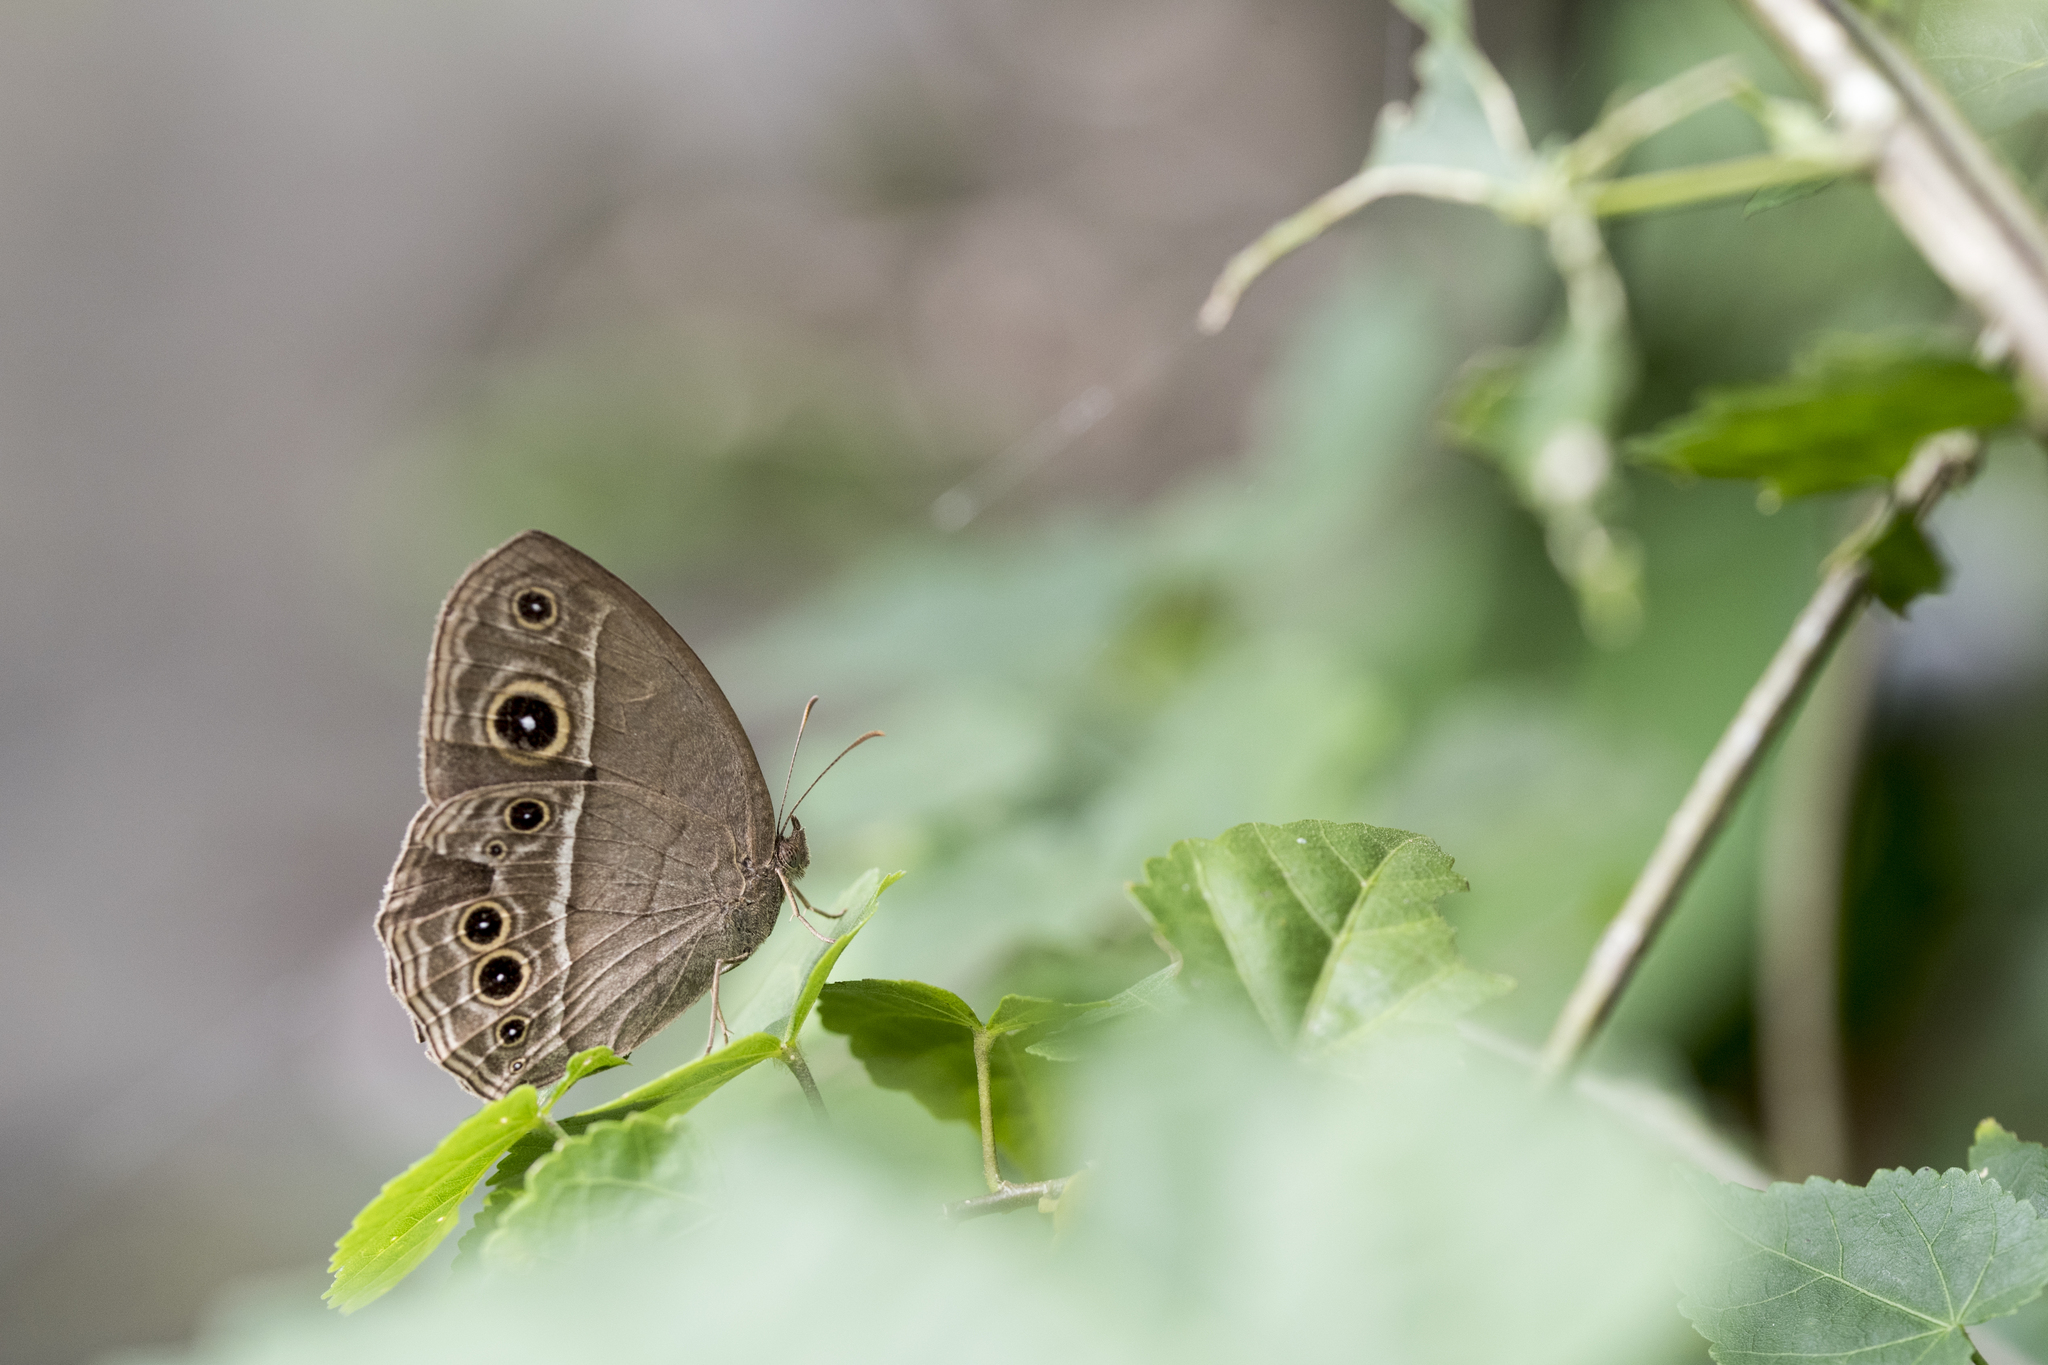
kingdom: Animalia
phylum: Arthropoda
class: Insecta
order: Lepidoptera
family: Nymphalidae
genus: Mycalesis
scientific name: Mycalesis horsfieldii
